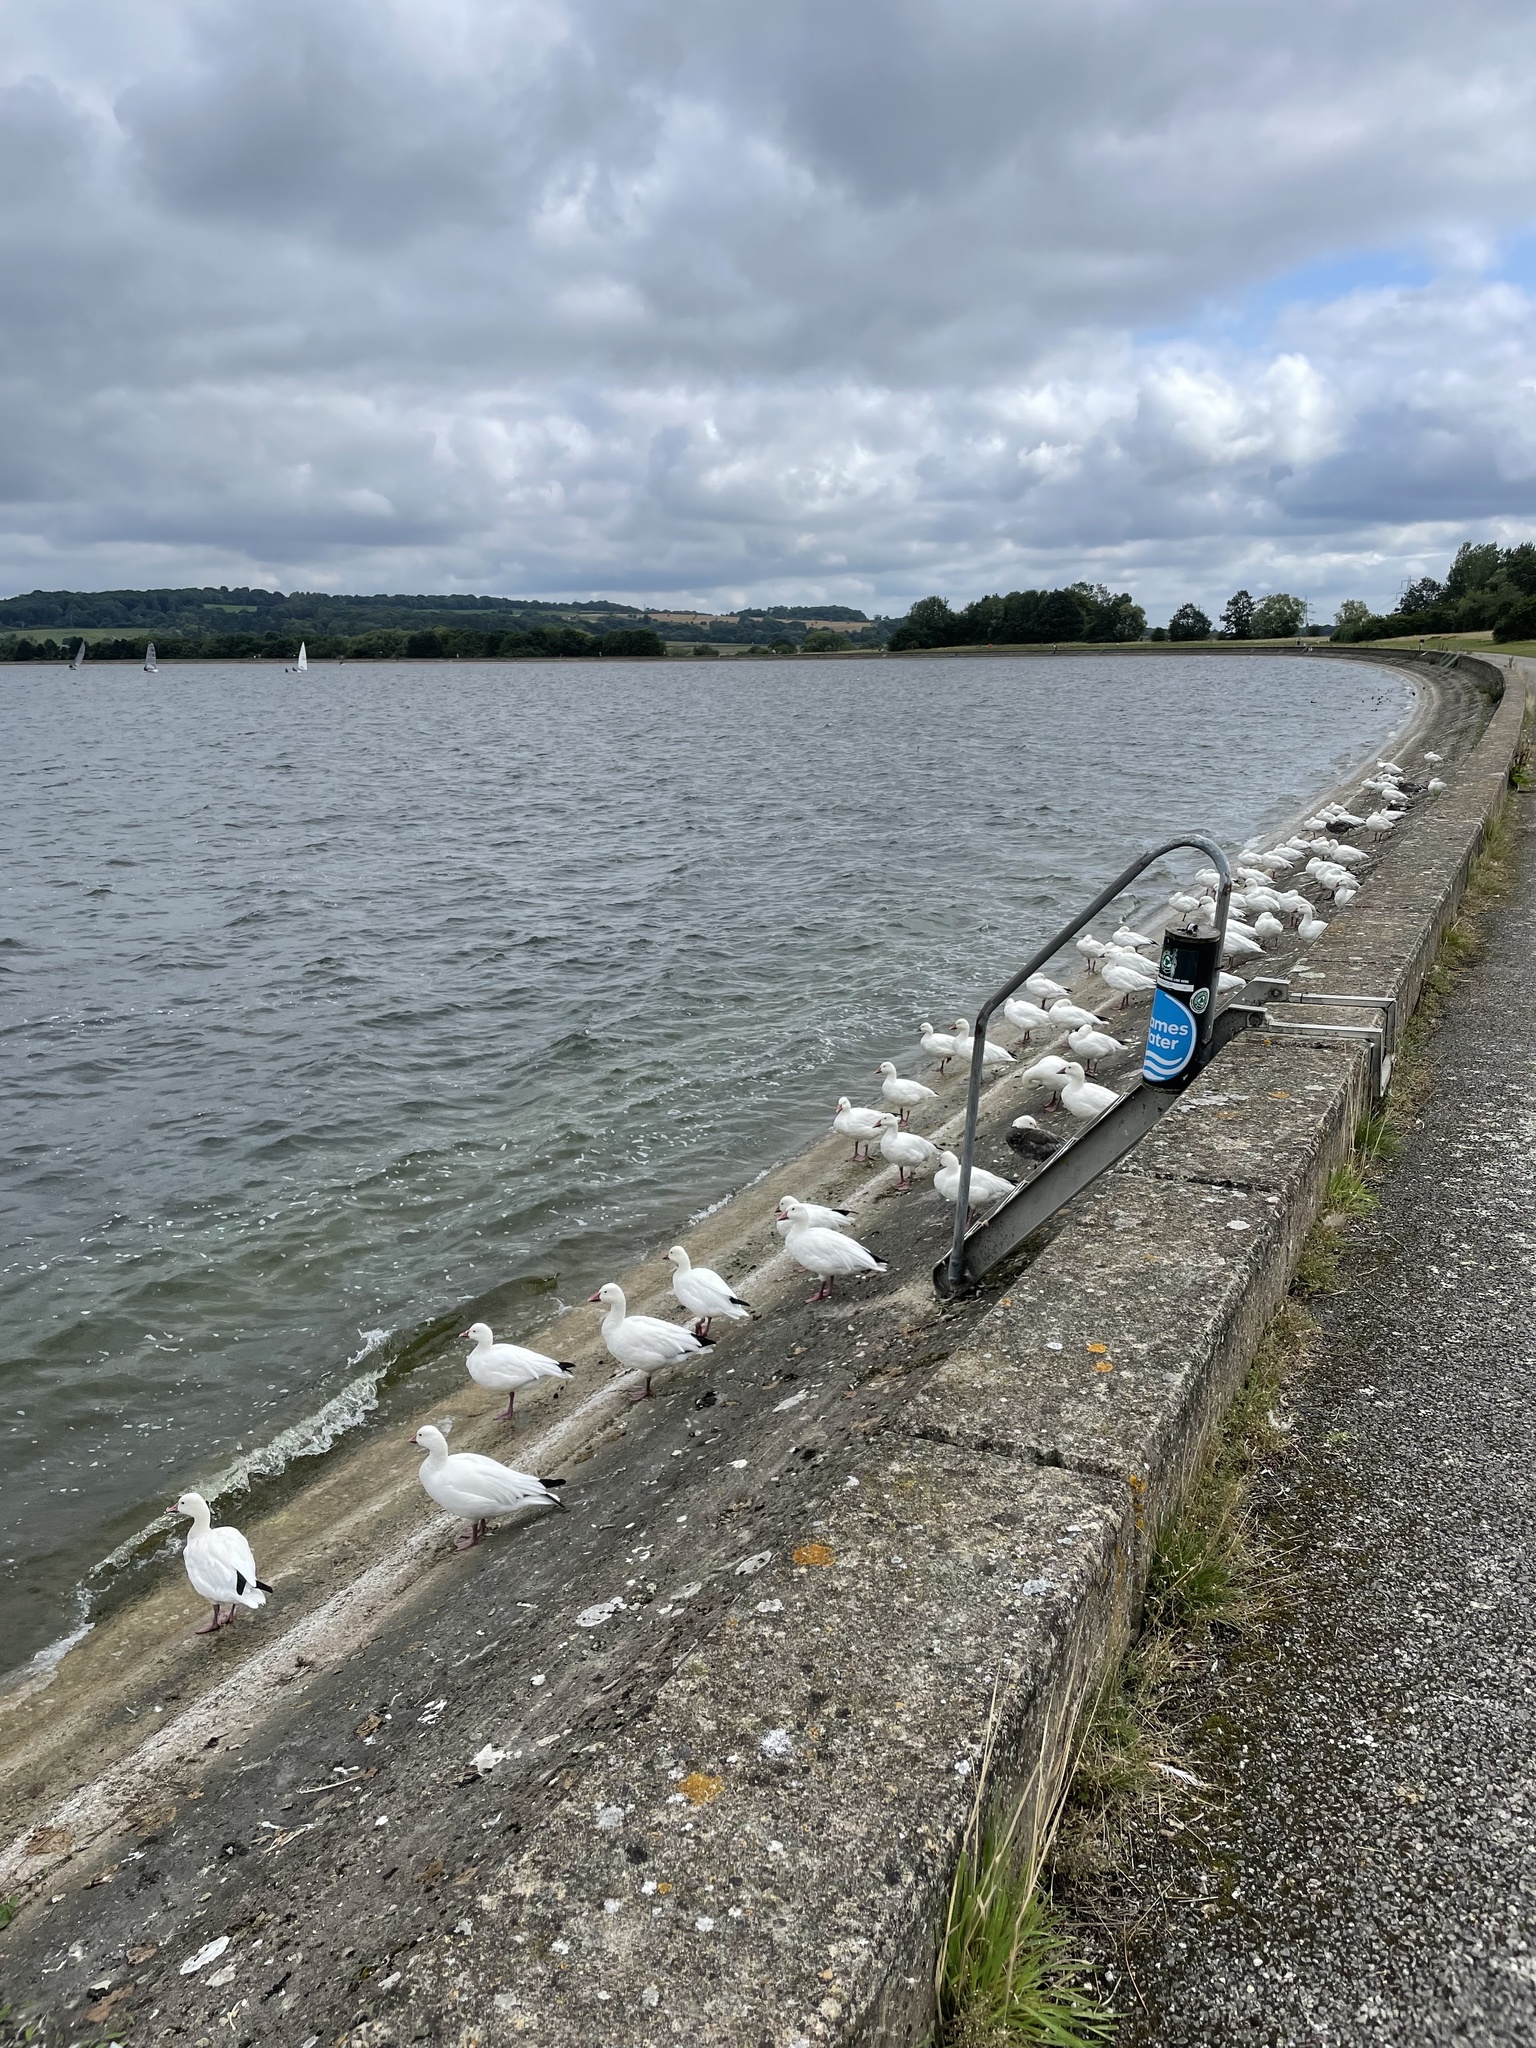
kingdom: Animalia
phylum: Chordata
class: Aves
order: Anseriformes
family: Anatidae
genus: Anser
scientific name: Anser caerulescens
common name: Snow goose
